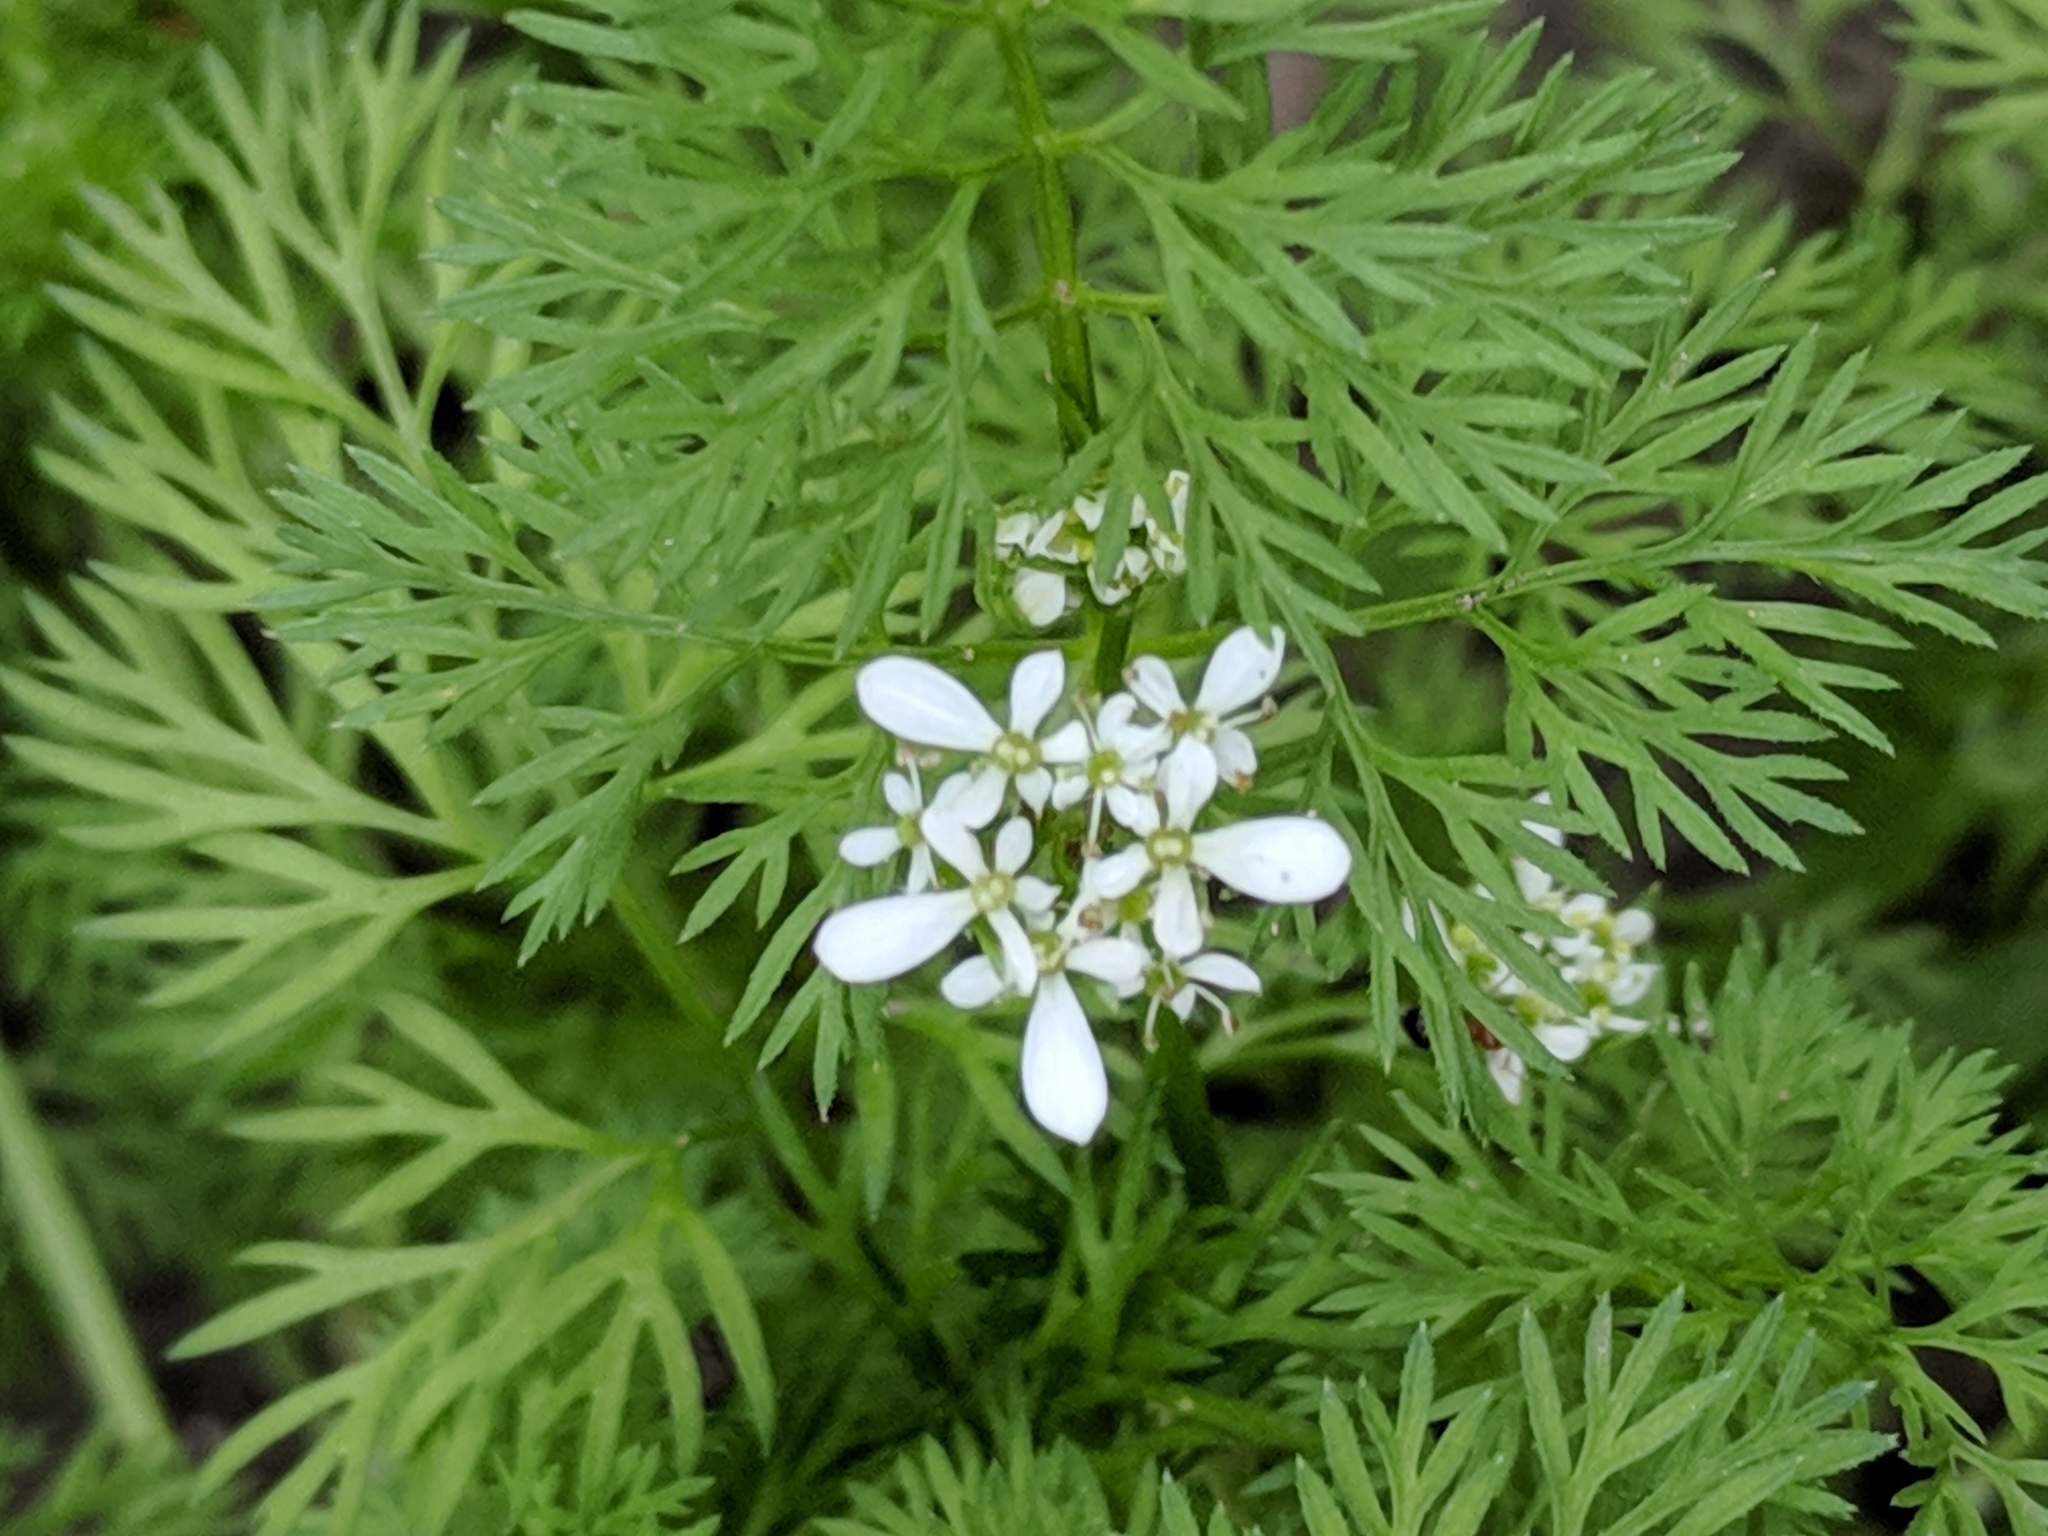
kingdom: Plantae
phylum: Tracheophyta
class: Magnoliopsida
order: Apiales
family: Apiaceae
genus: Scandix
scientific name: Scandix pecten-veneris
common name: Shepherd's-needle
